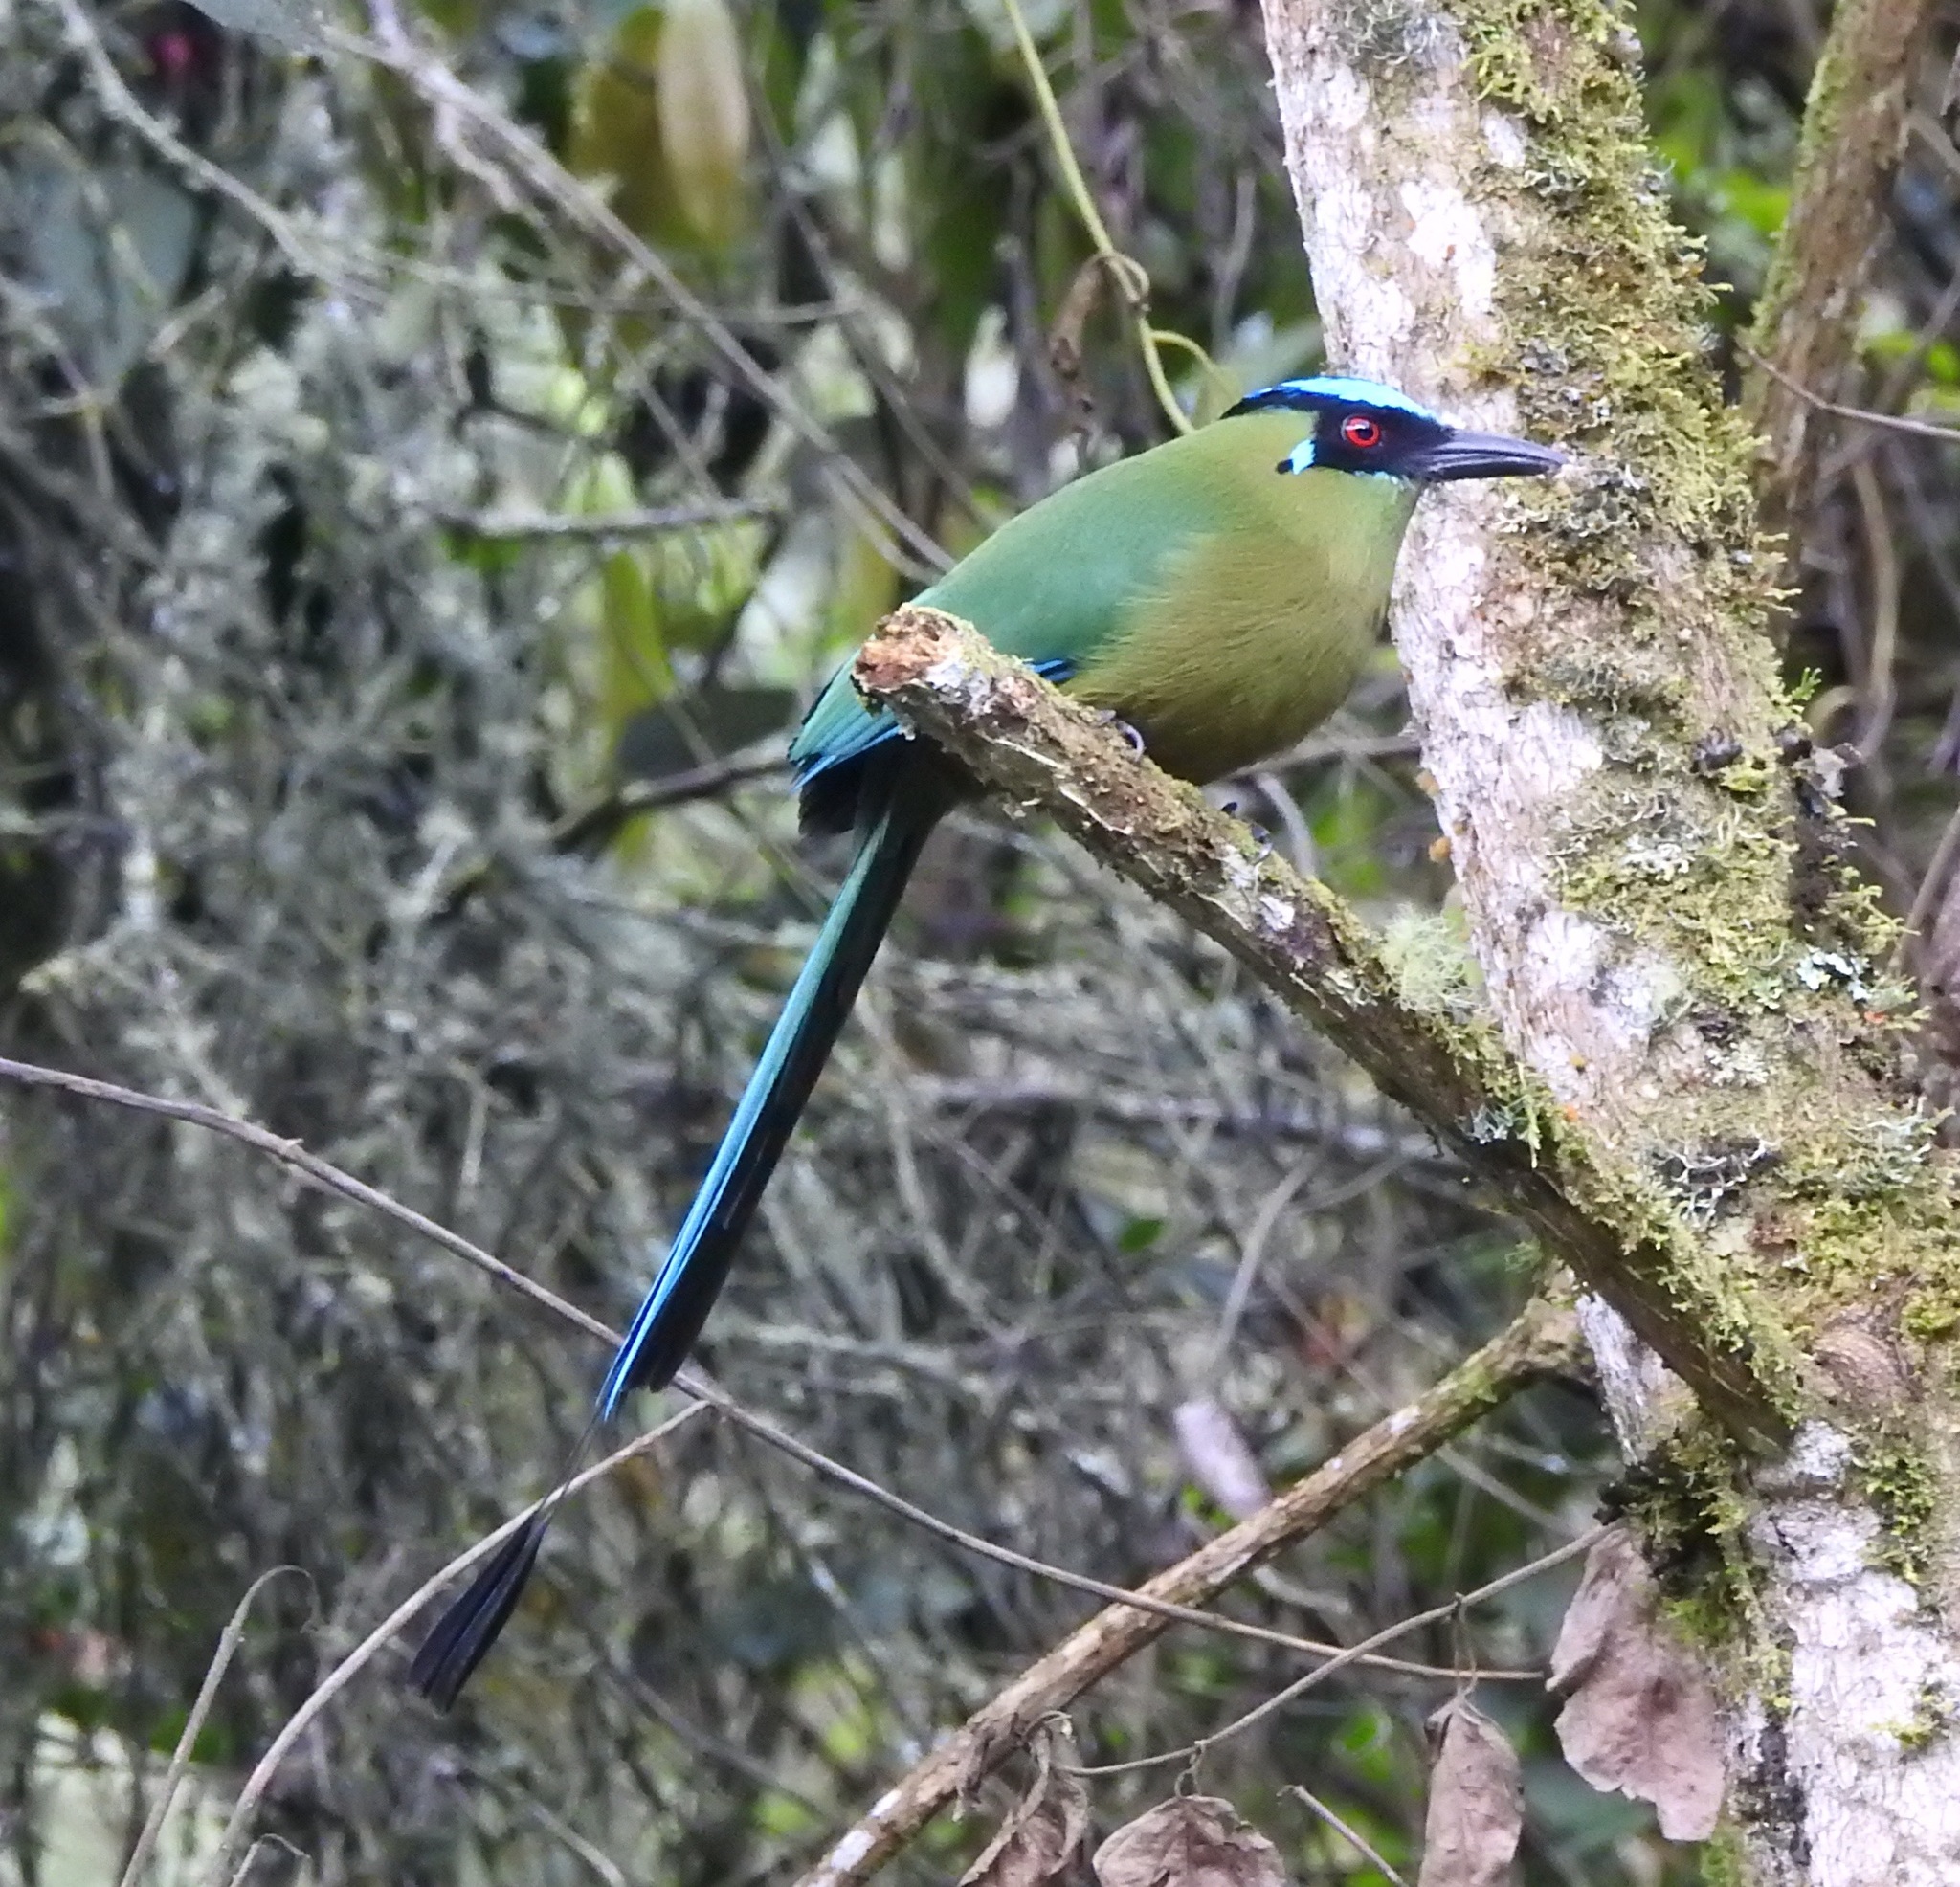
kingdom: Animalia
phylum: Chordata
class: Aves
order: Coraciiformes
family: Momotidae
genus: Momotus
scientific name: Momotus aequatorialis
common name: Andean motmot
